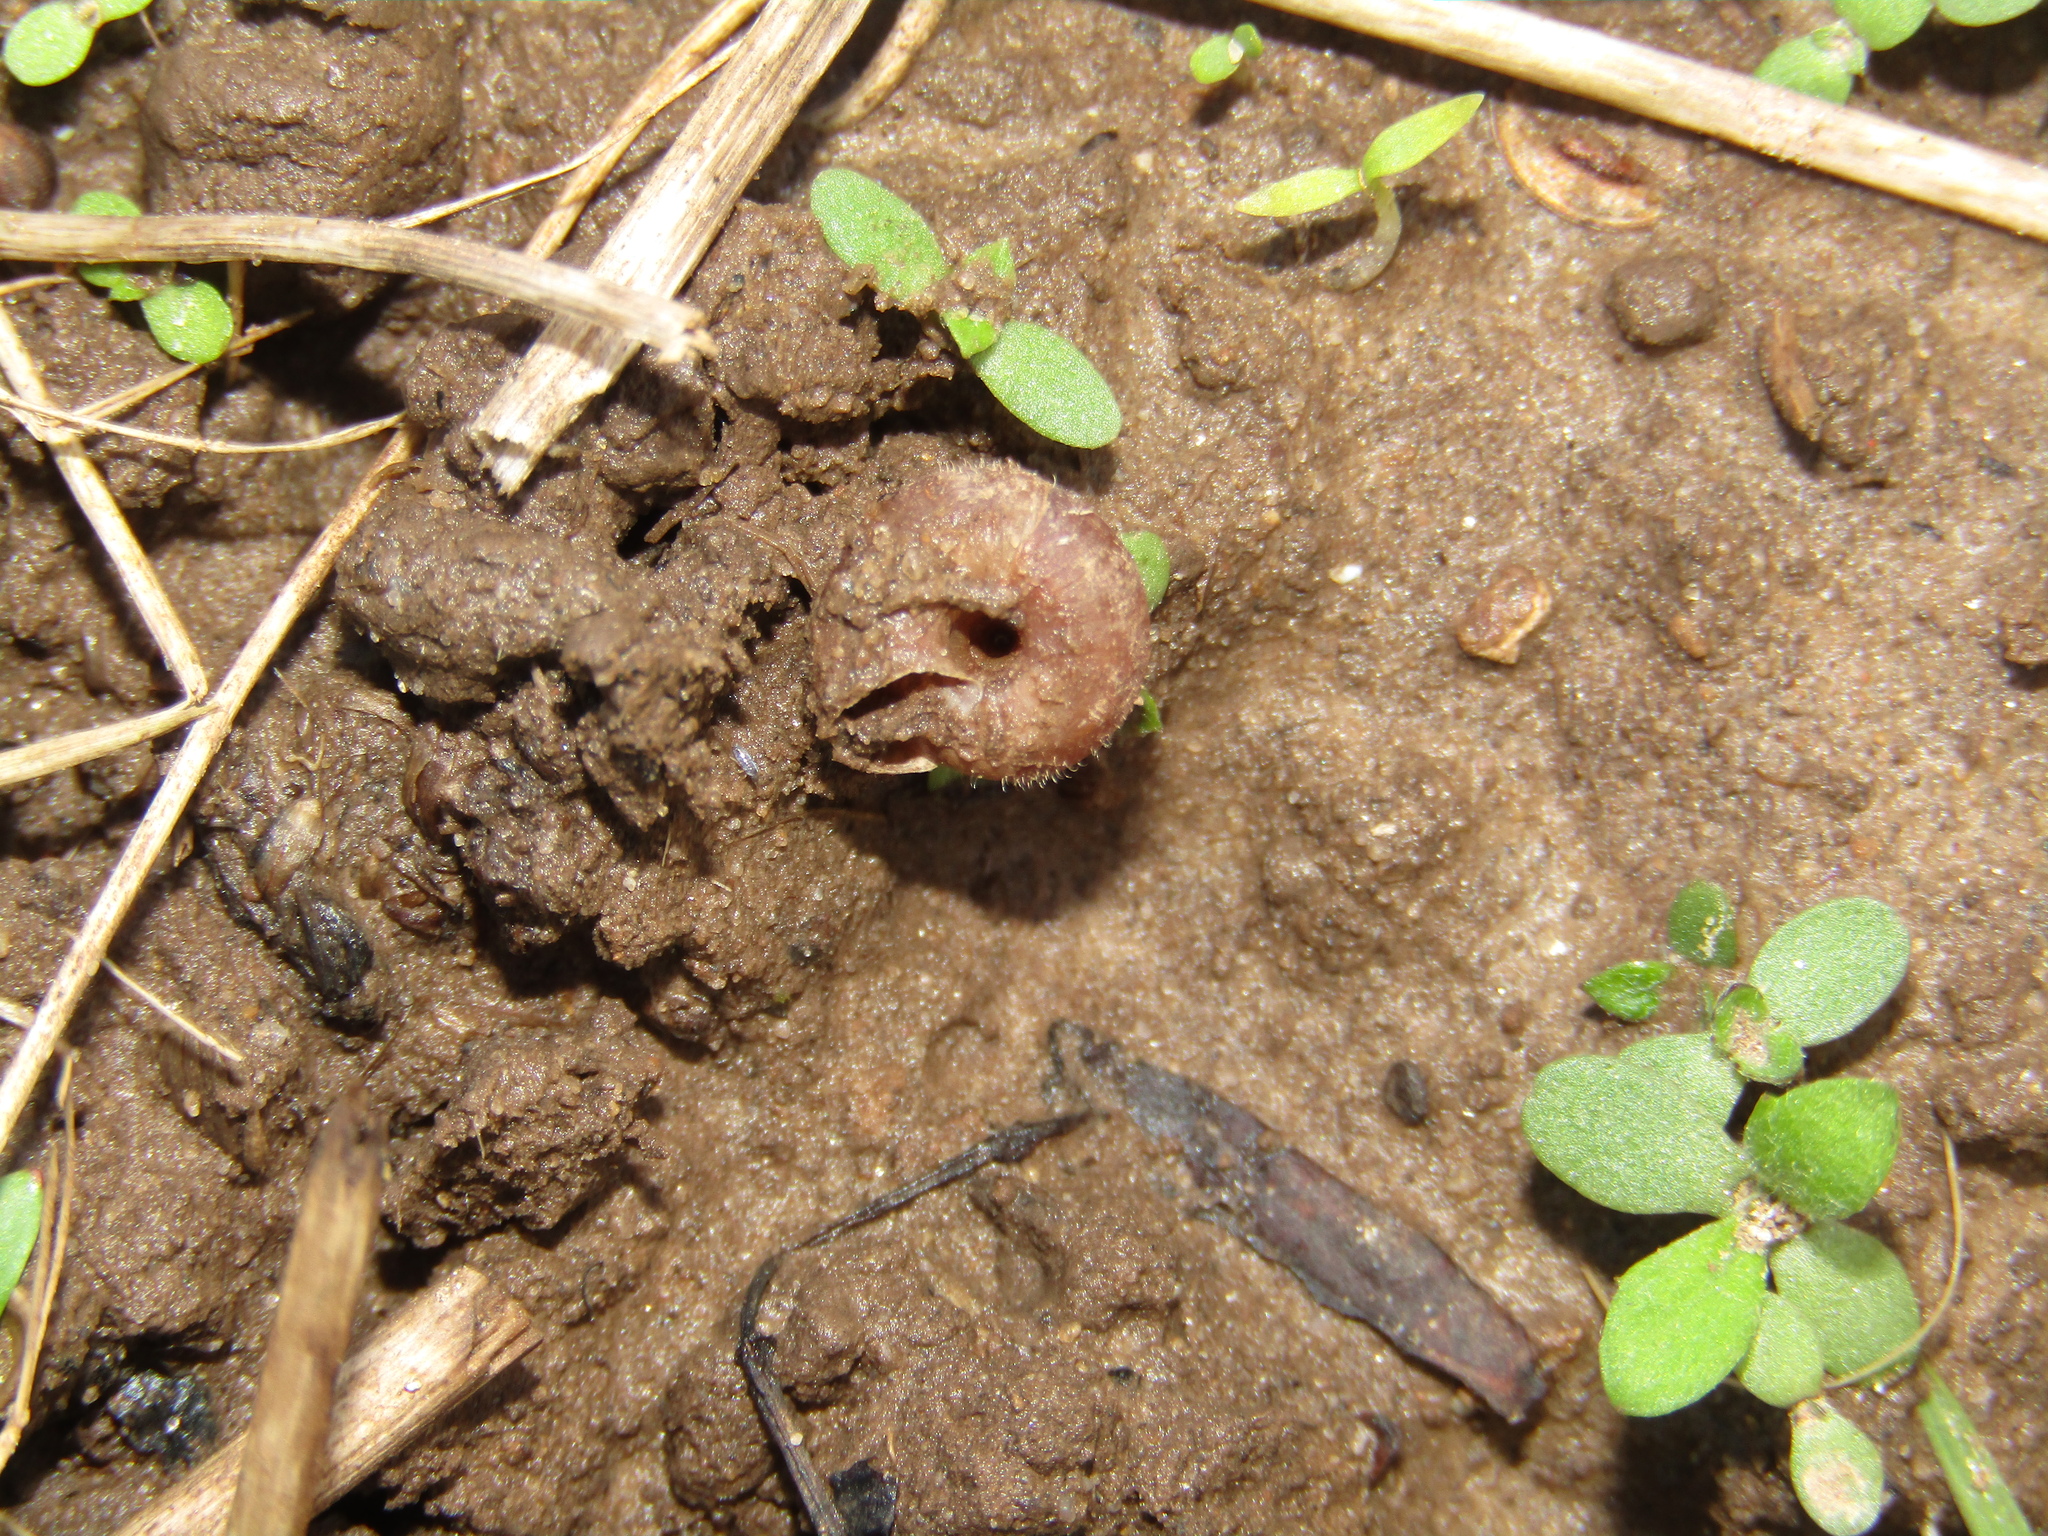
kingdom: Animalia
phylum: Mollusca
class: Gastropoda
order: Stylommatophora
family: Hygromiidae
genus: Trochulus
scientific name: Trochulus hispidus
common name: Hairy snail
